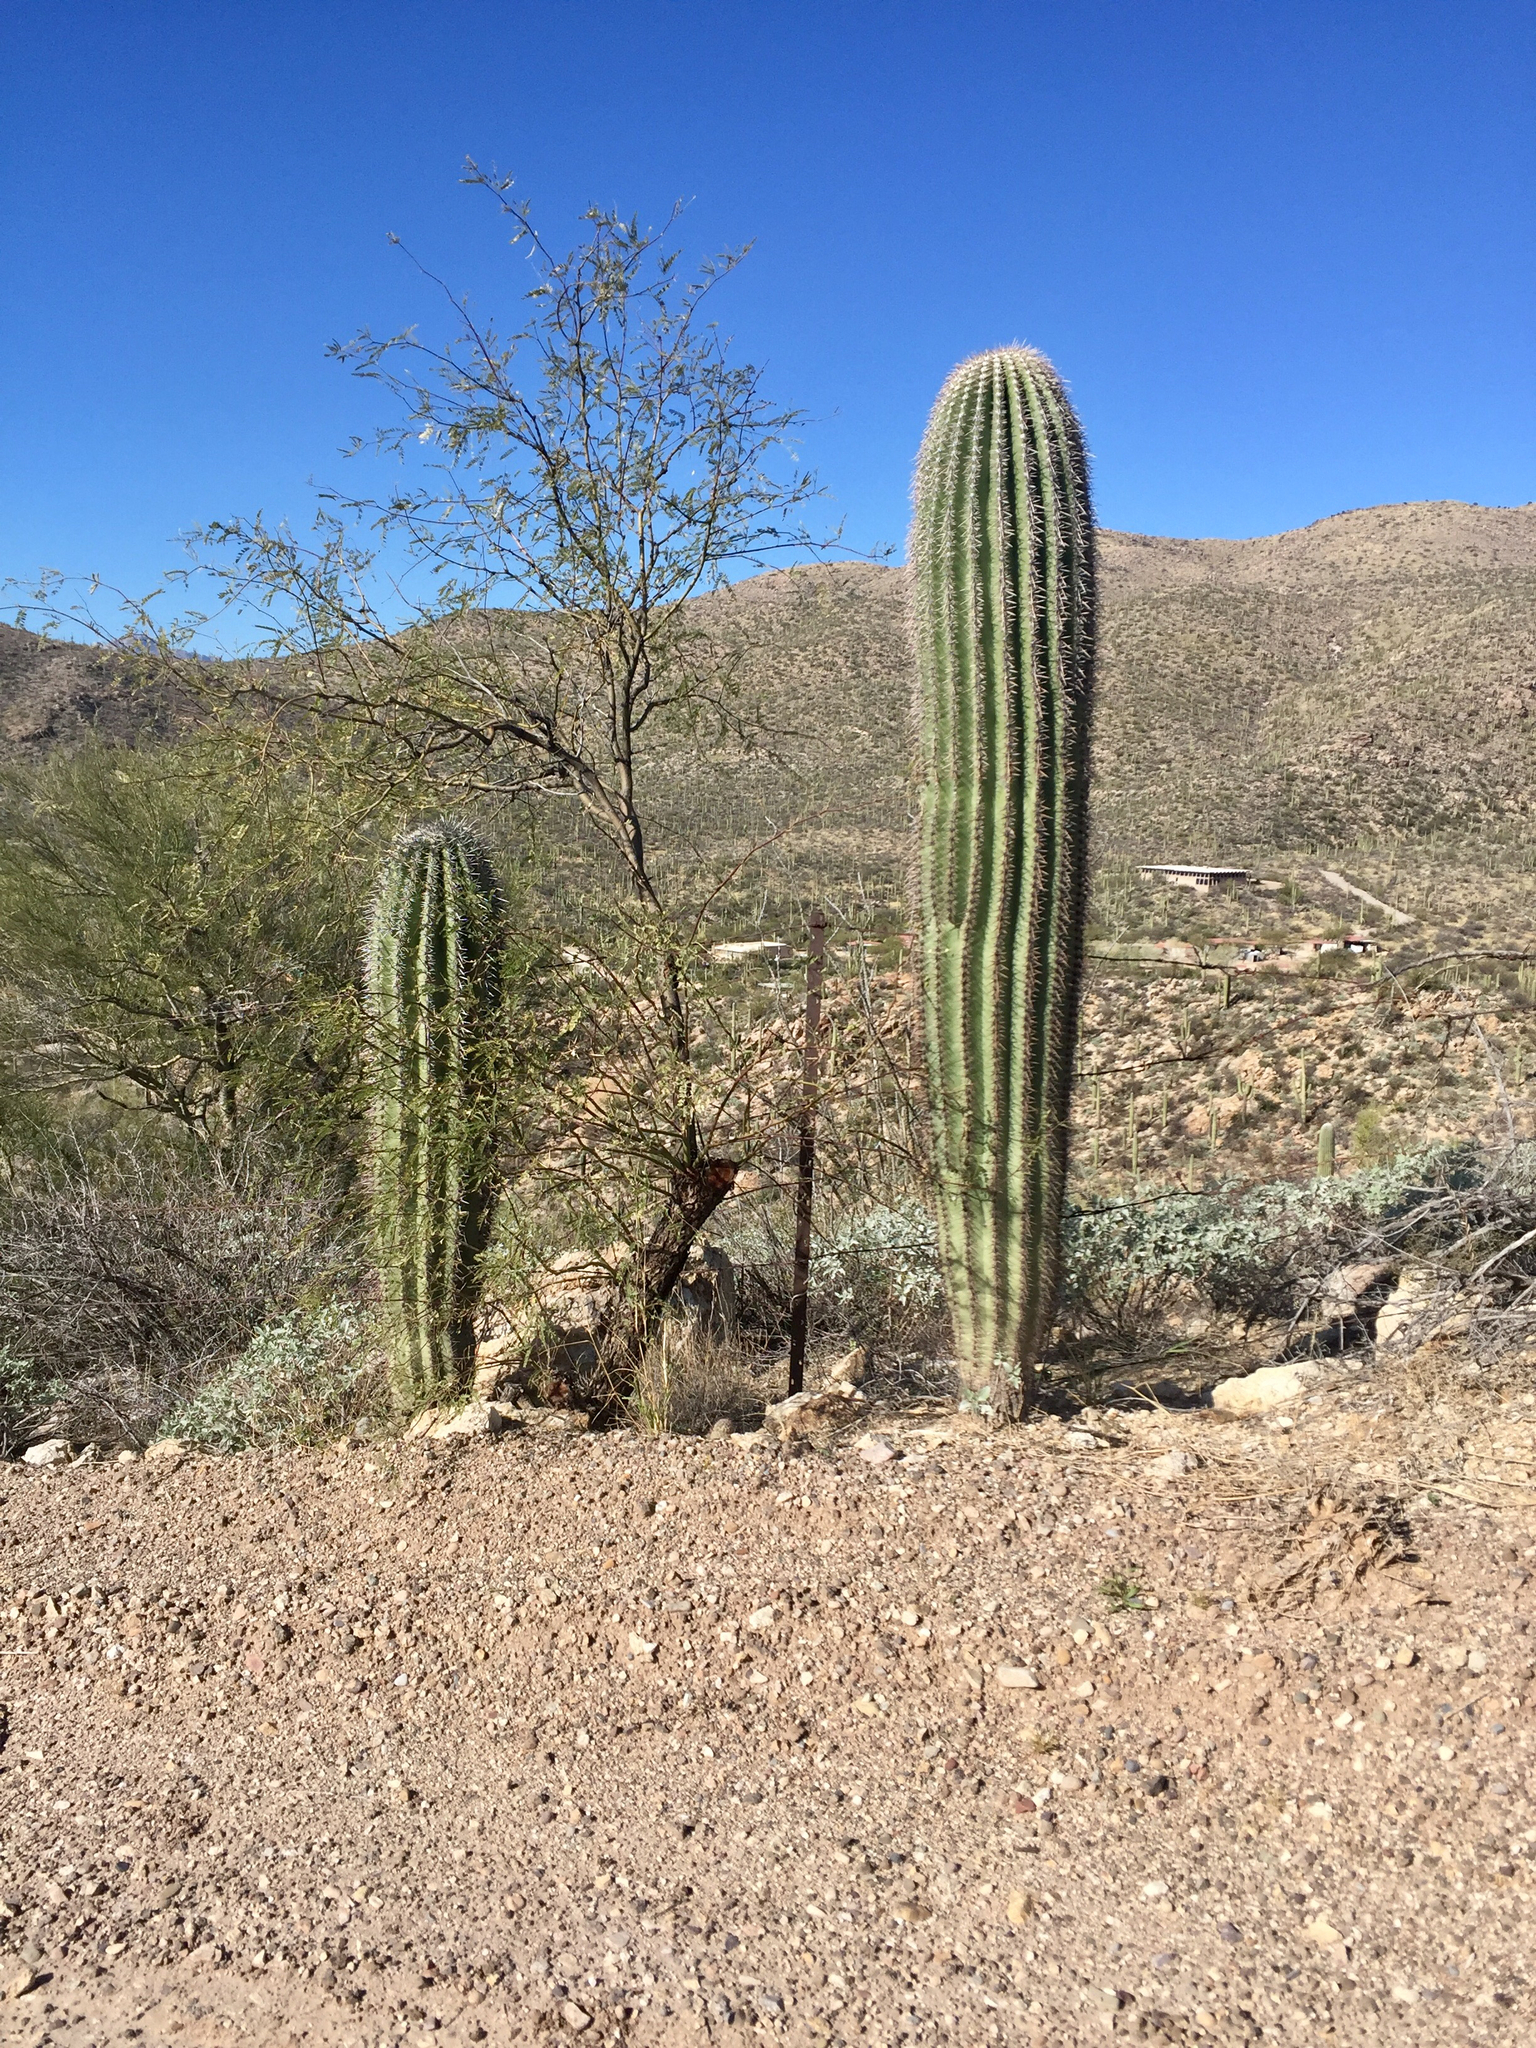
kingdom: Plantae
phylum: Tracheophyta
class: Magnoliopsida
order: Caryophyllales
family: Cactaceae
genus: Carnegiea
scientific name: Carnegiea gigantea
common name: Saguaro
